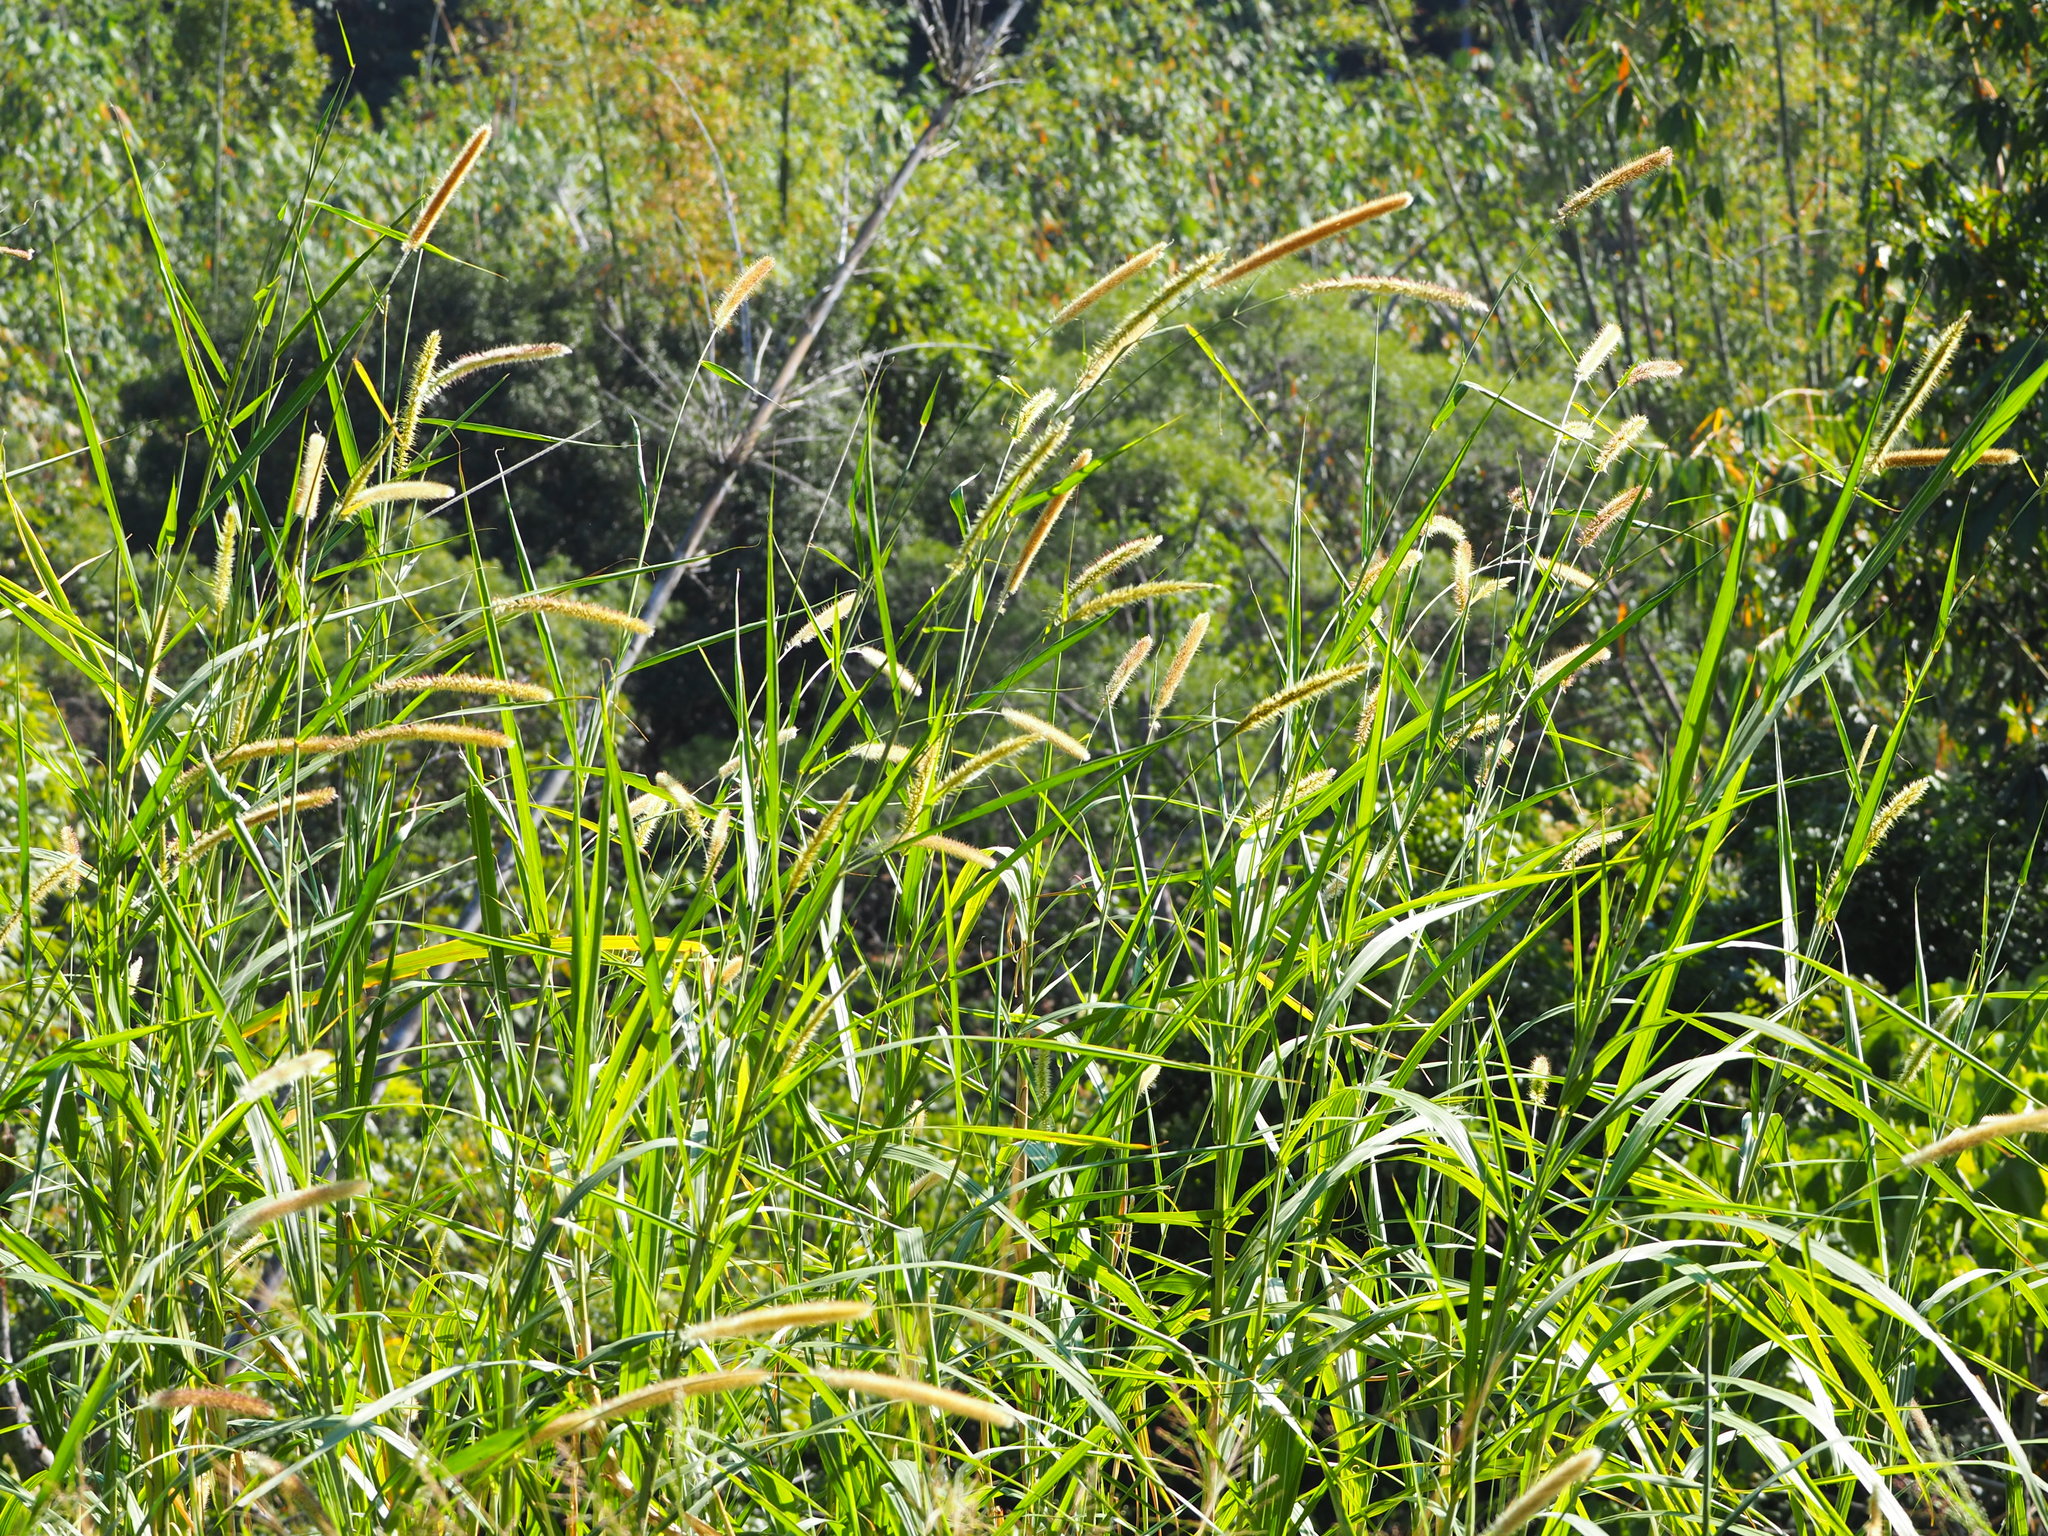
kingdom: Plantae
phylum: Tracheophyta
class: Liliopsida
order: Poales
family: Poaceae
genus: Cenchrus
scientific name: Cenchrus purpureus
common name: Elephant grass
